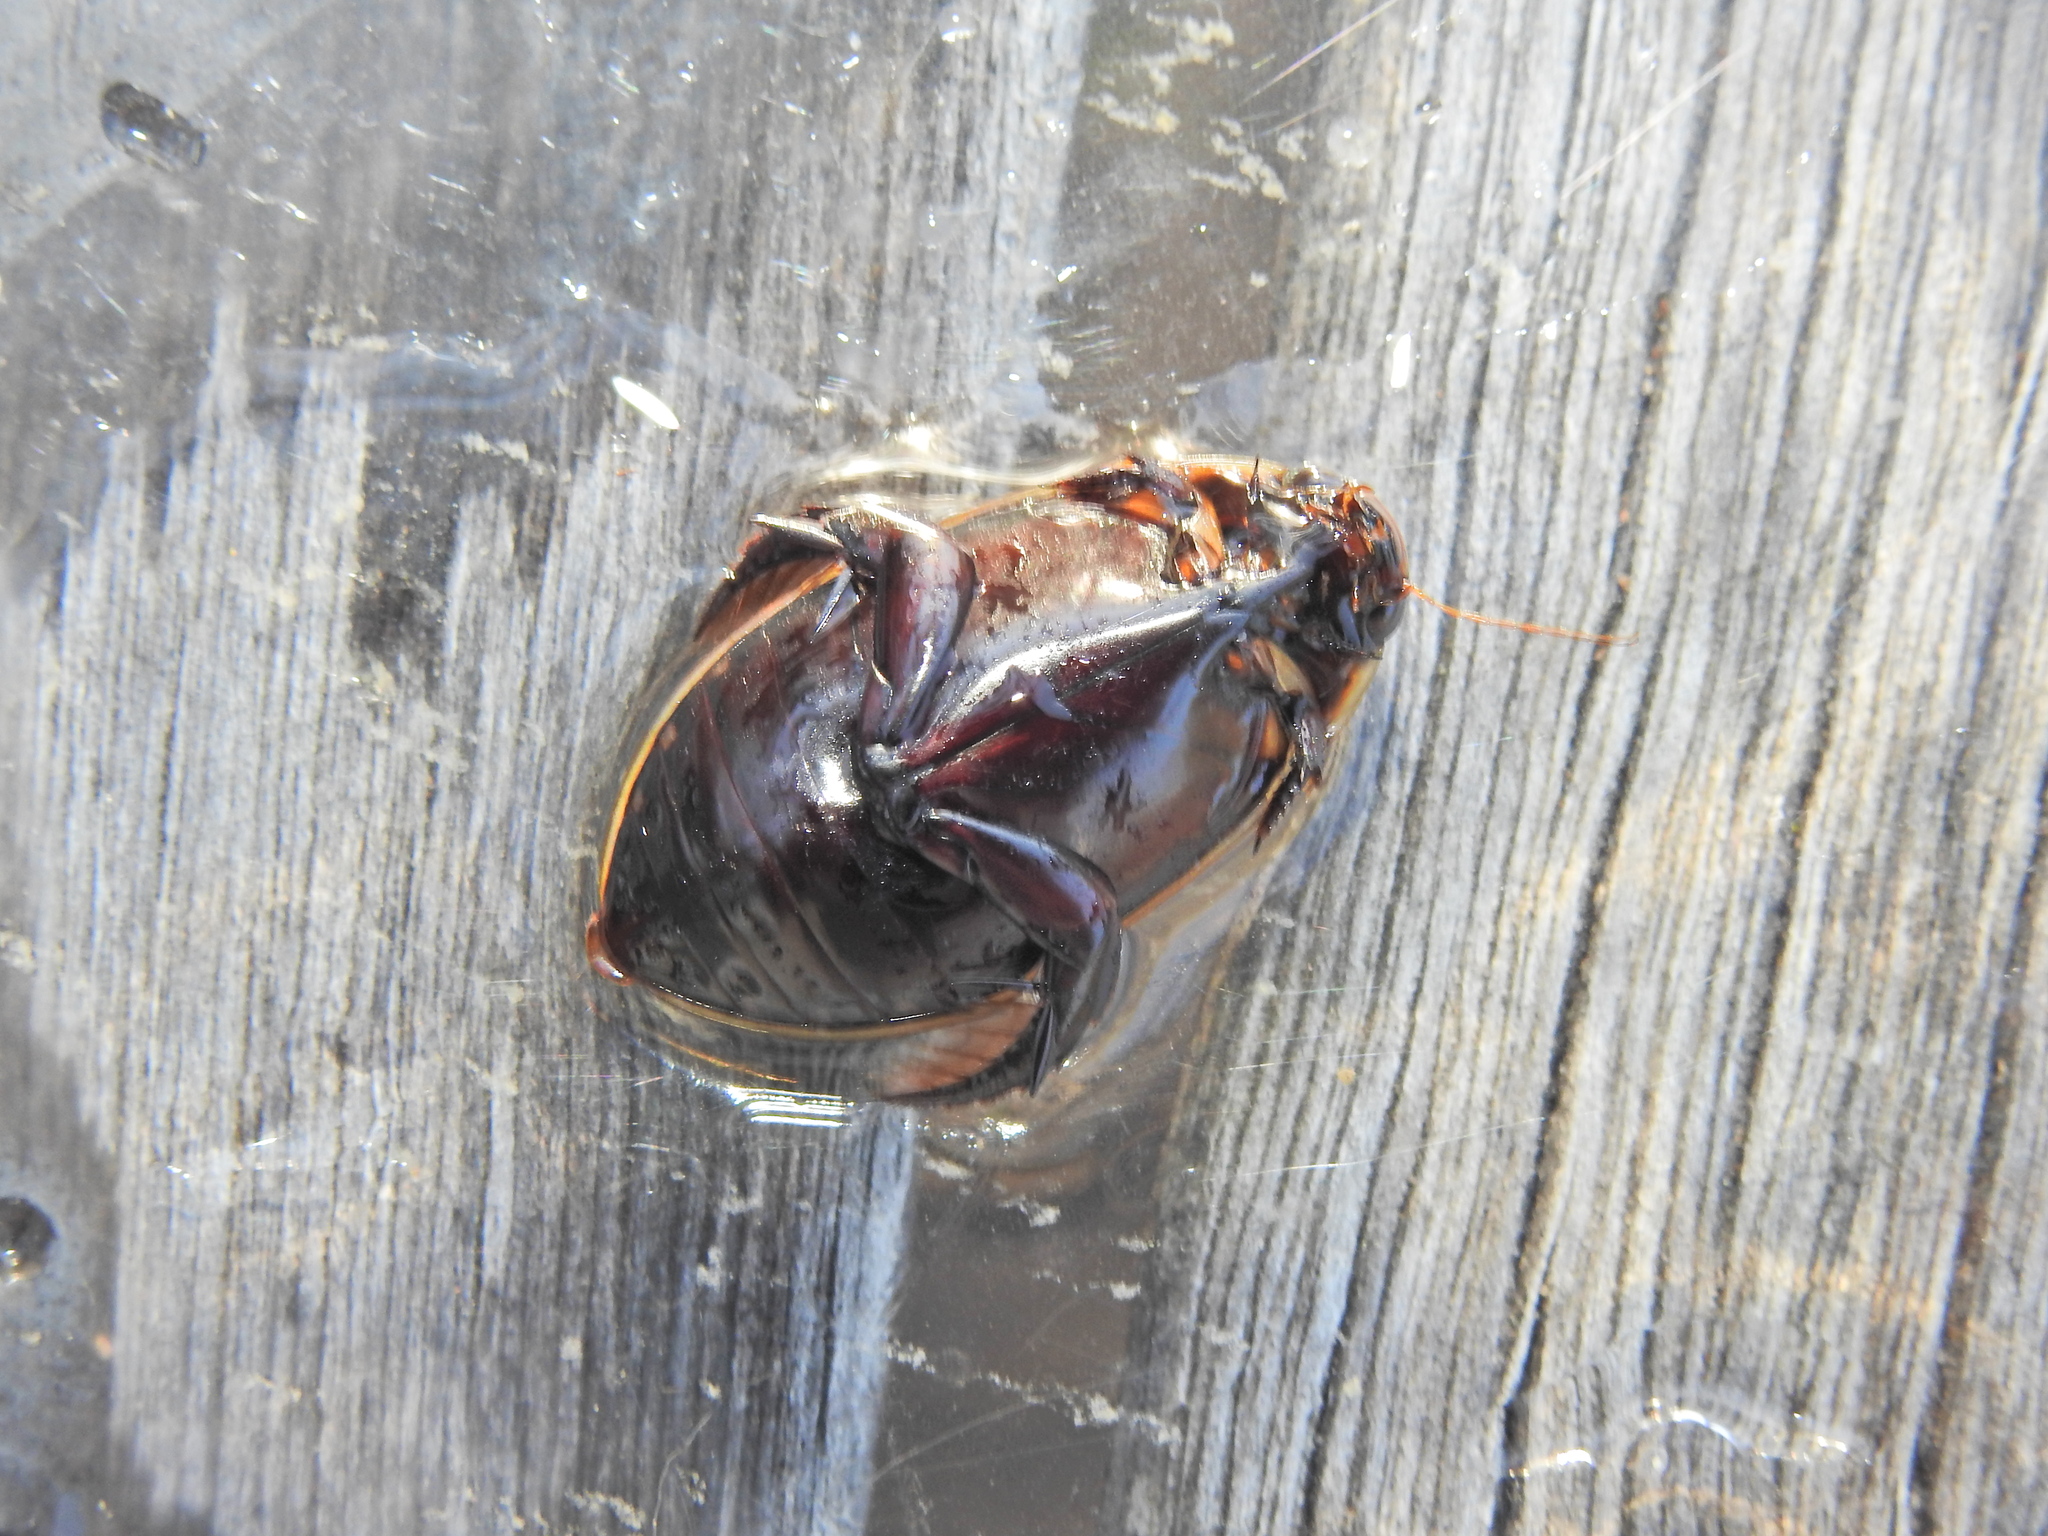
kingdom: Animalia
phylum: Arthropoda
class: Insecta
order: Coleoptera
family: Dytiscidae
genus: Cybister
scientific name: Cybister
